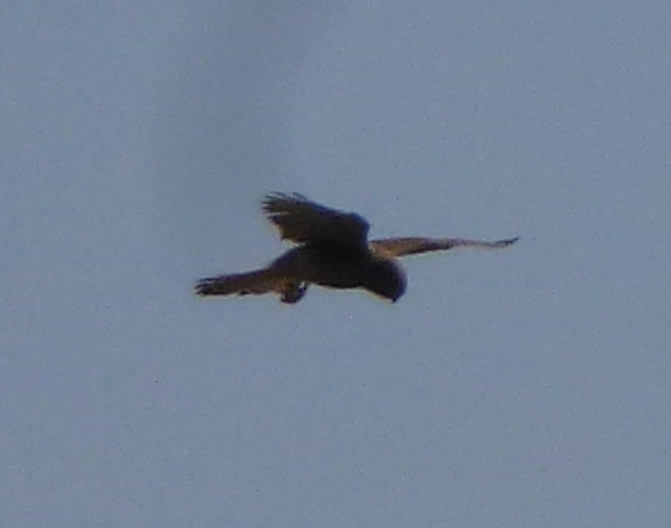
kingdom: Animalia
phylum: Chordata
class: Aves
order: Falconiformes
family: Falconidae
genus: Falco
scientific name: Falco tinnunculus
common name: Common kestrel
